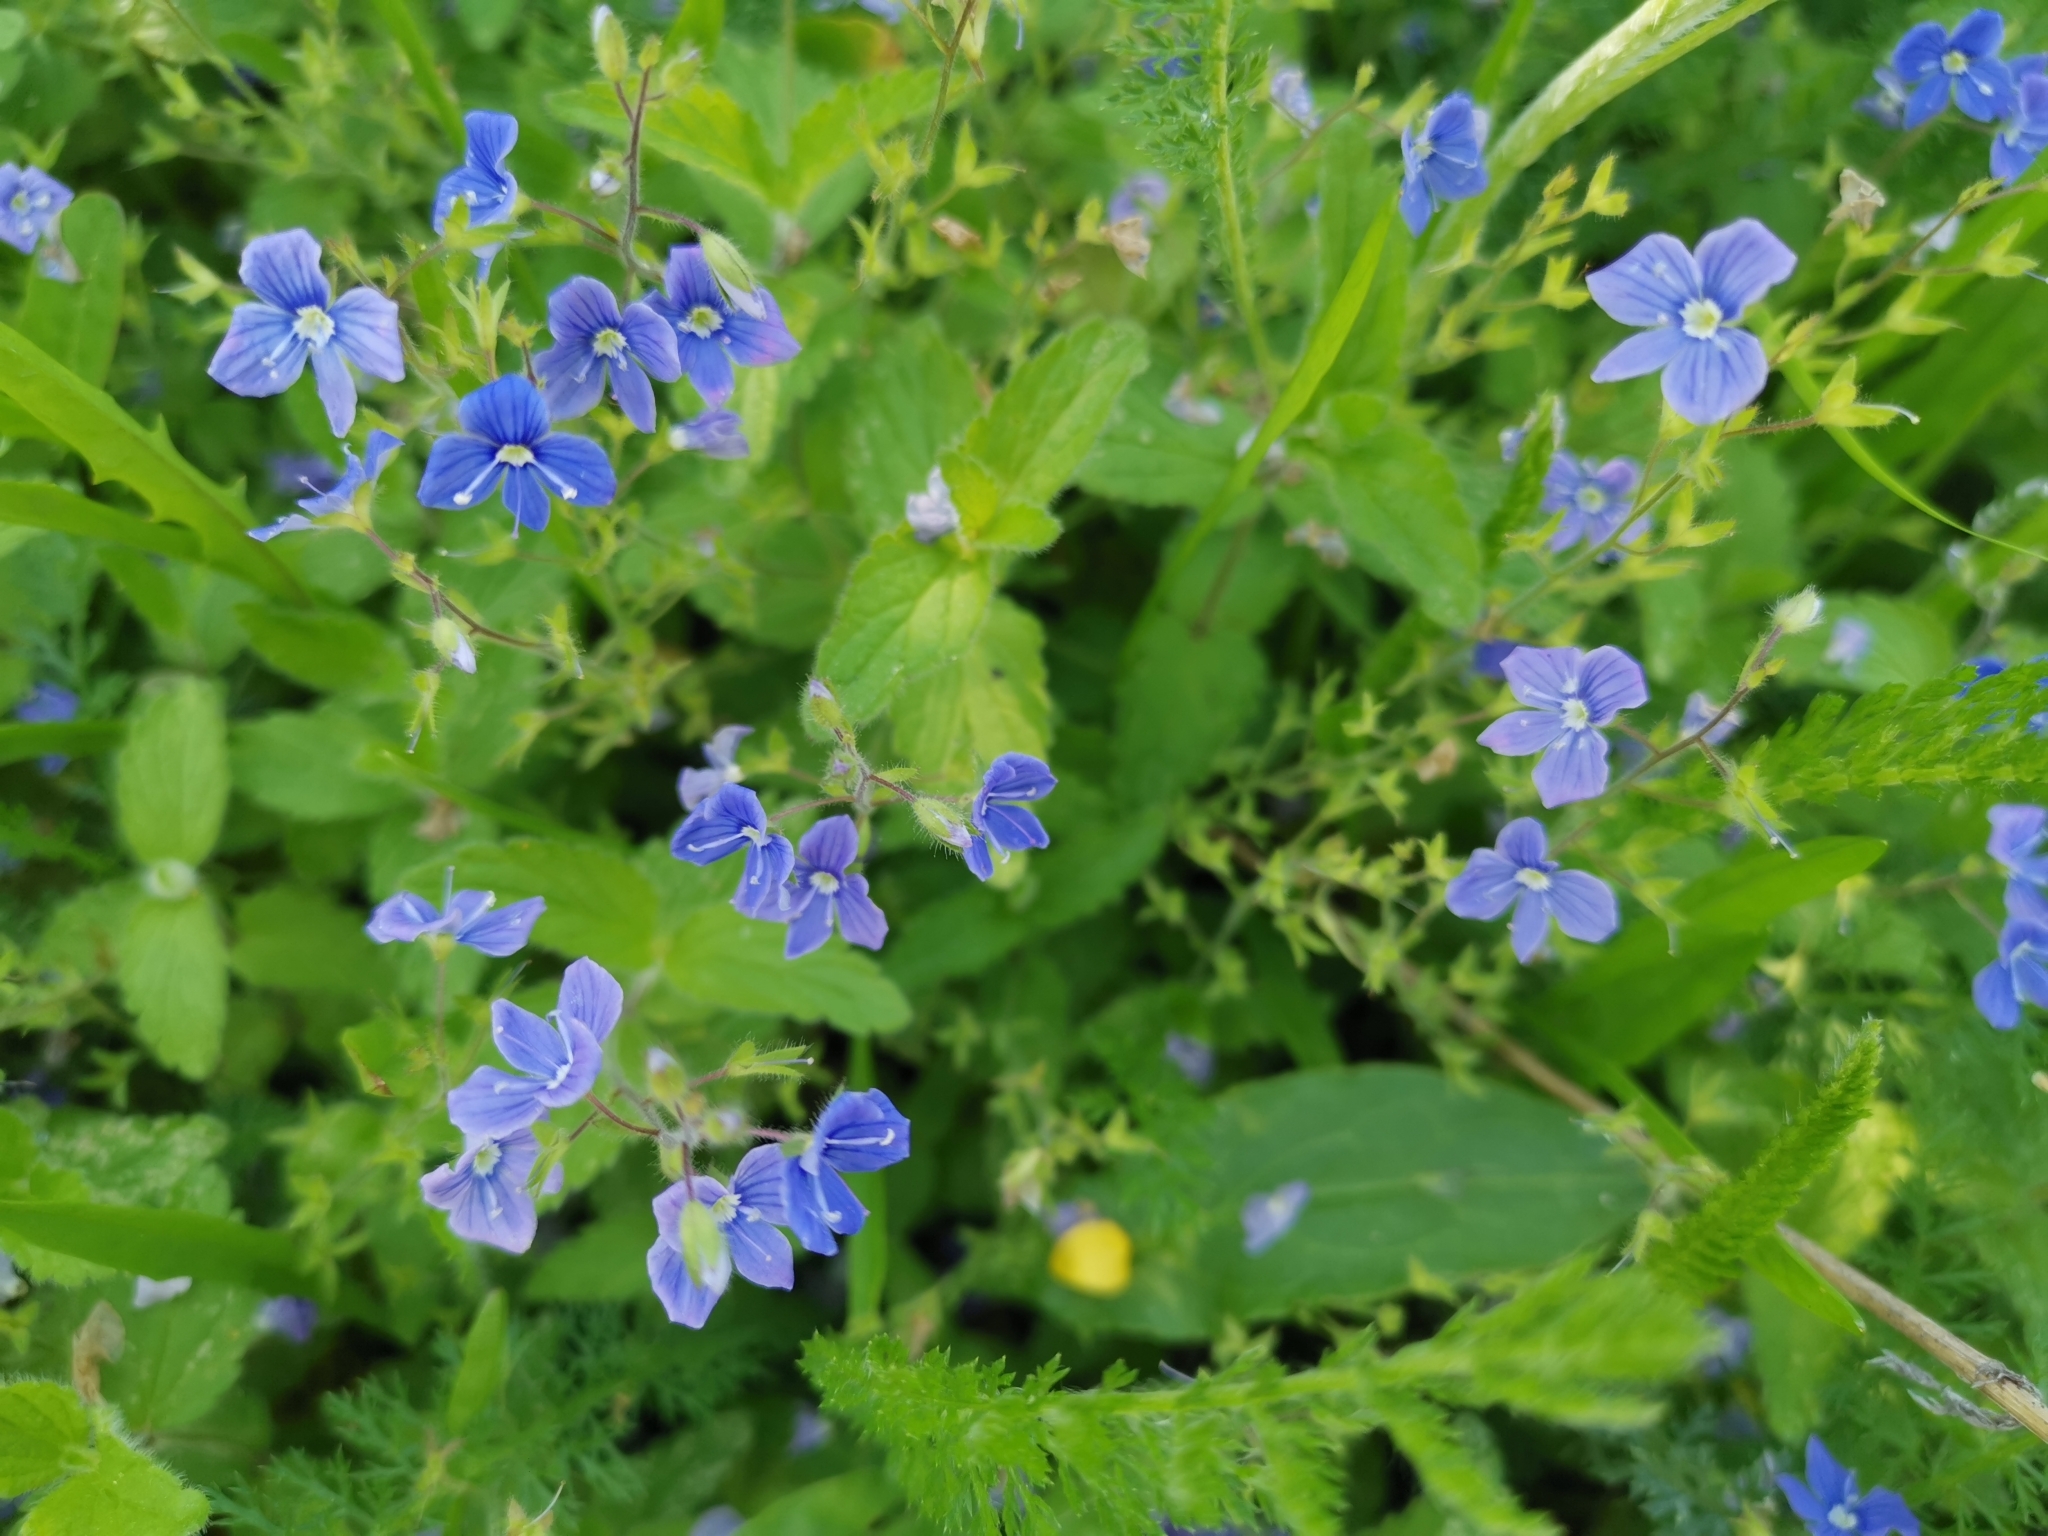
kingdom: Plantae
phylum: Tracheophyta
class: Magnoliopsida
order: Lamiales
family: Plantaginaceae
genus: Veronica
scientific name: Veronica chamaedrys
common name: Germander speedwell
